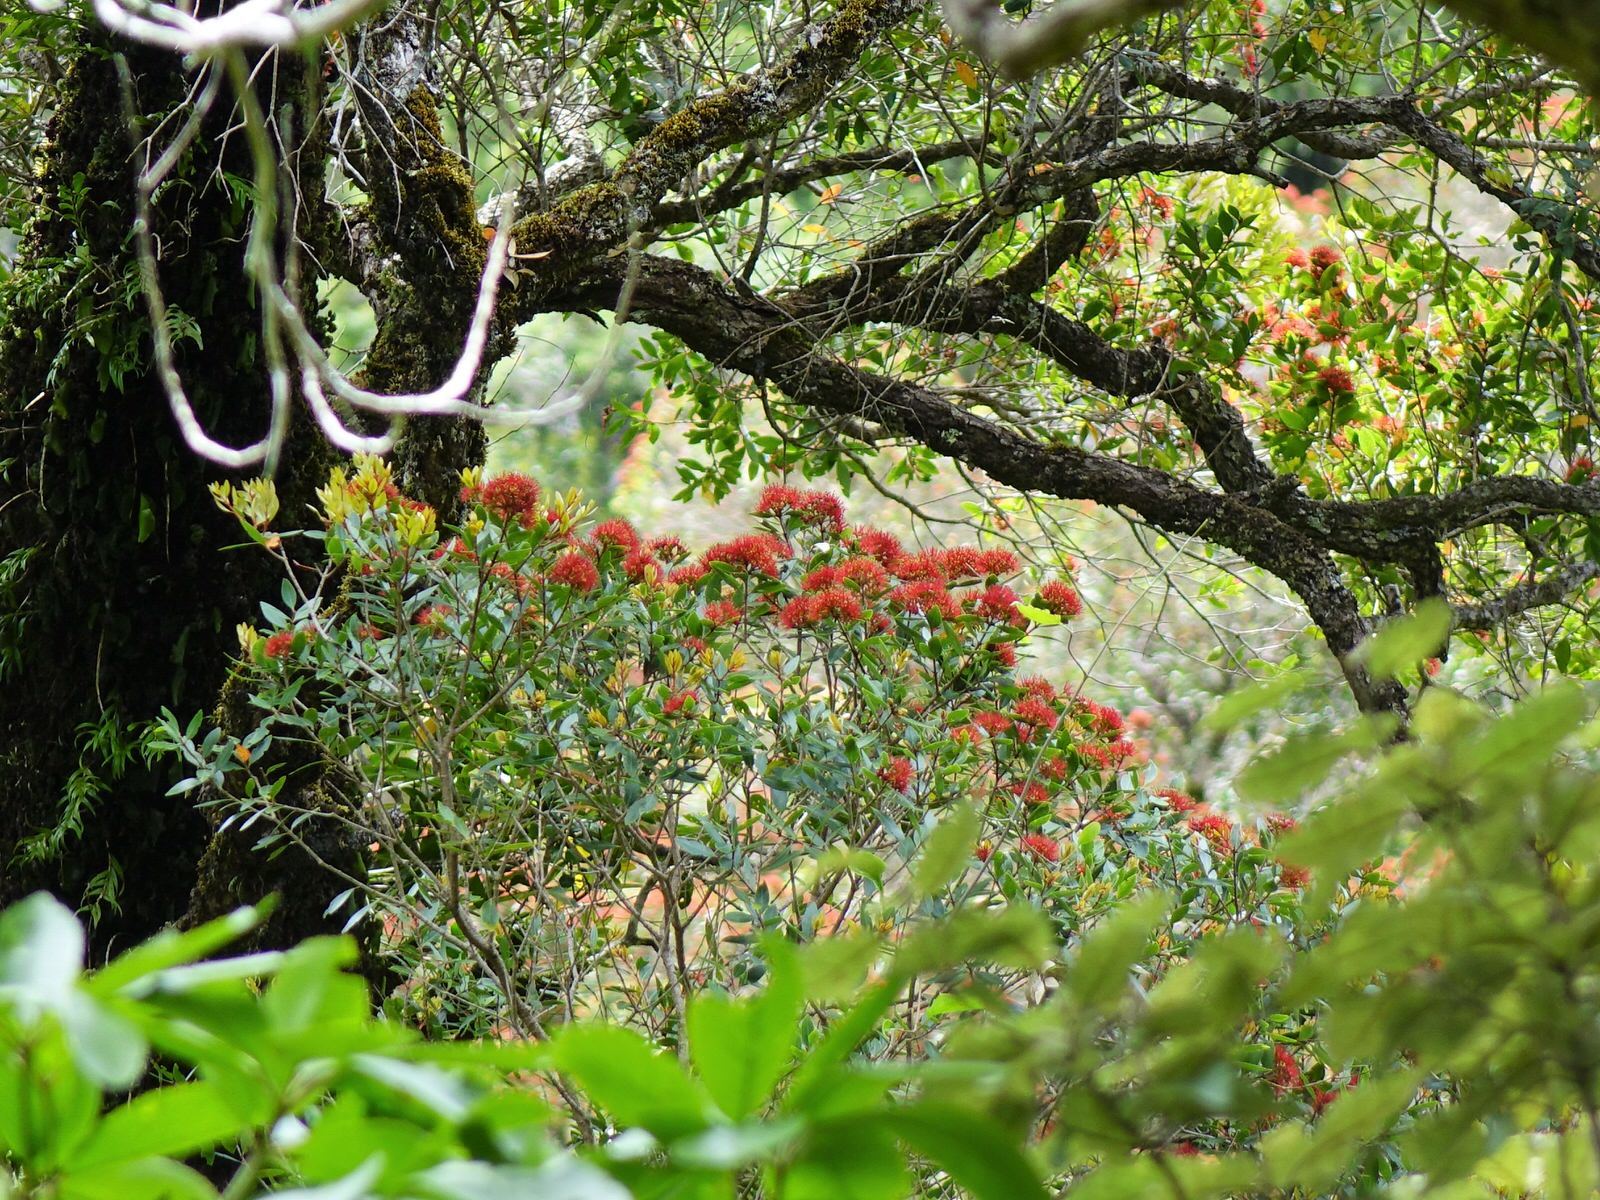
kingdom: Plantae
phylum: Tracheophyta
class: Magnoliopsida
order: Myrtales
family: Myrtaceae
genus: Metrosideros
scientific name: Metrosideros robusta
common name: Northern rata
